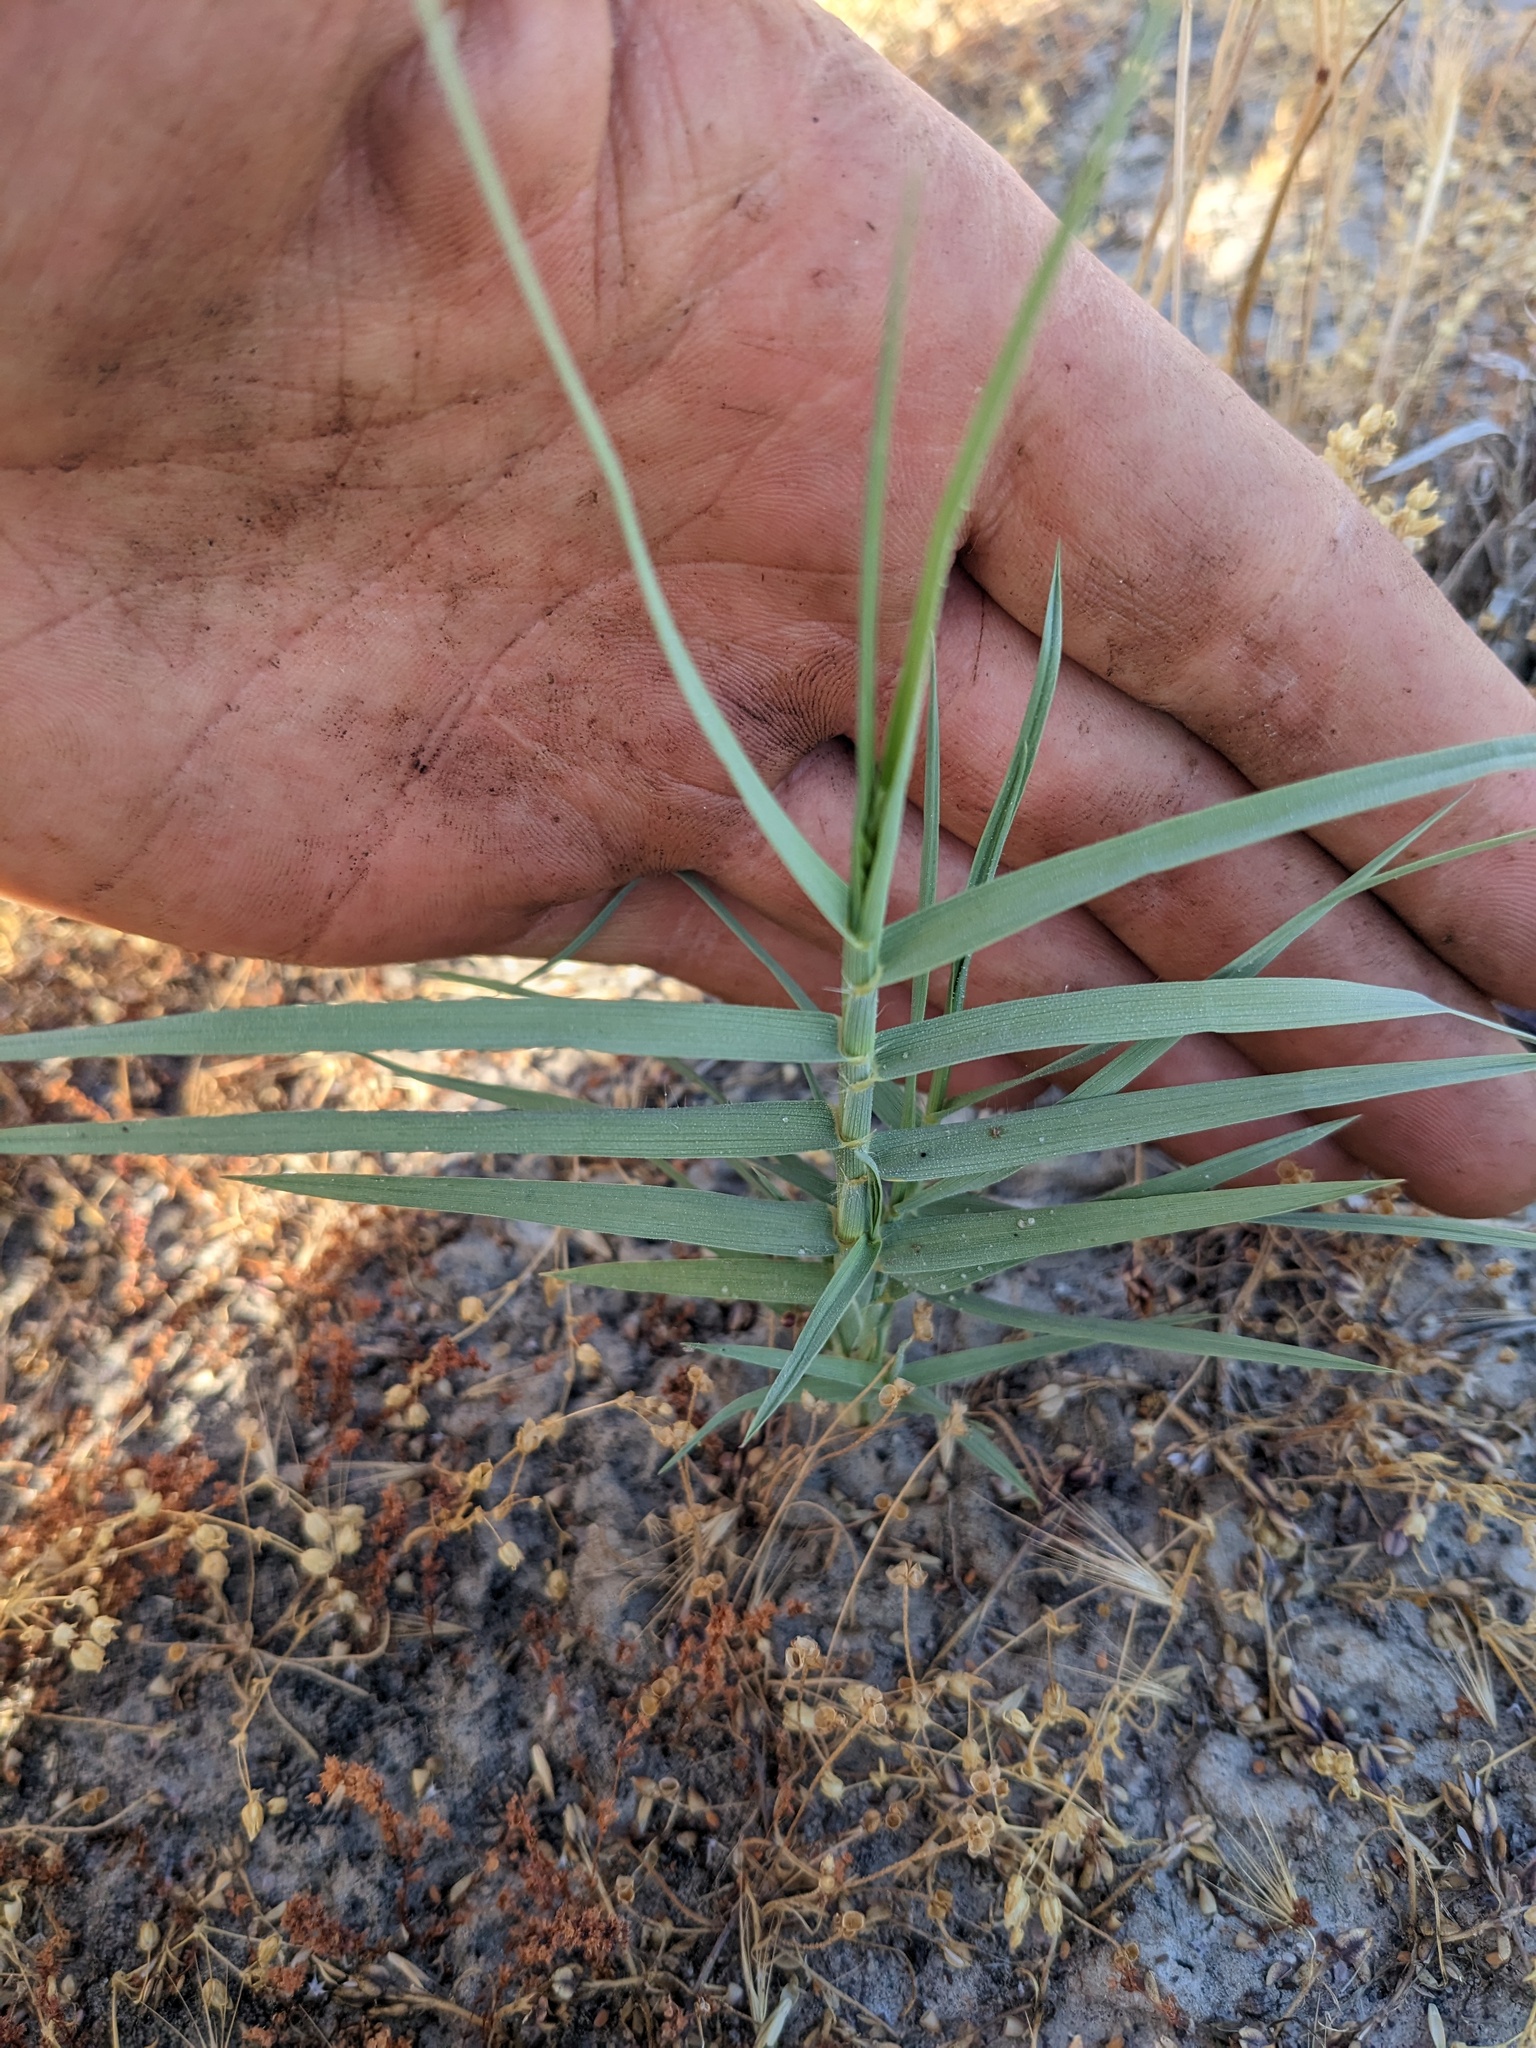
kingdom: Plantae
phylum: Tracheophyta
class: Liliopsida
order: Poales
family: Poaceae
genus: Distichlis
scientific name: Distichlis spicata
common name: Saltgrass
